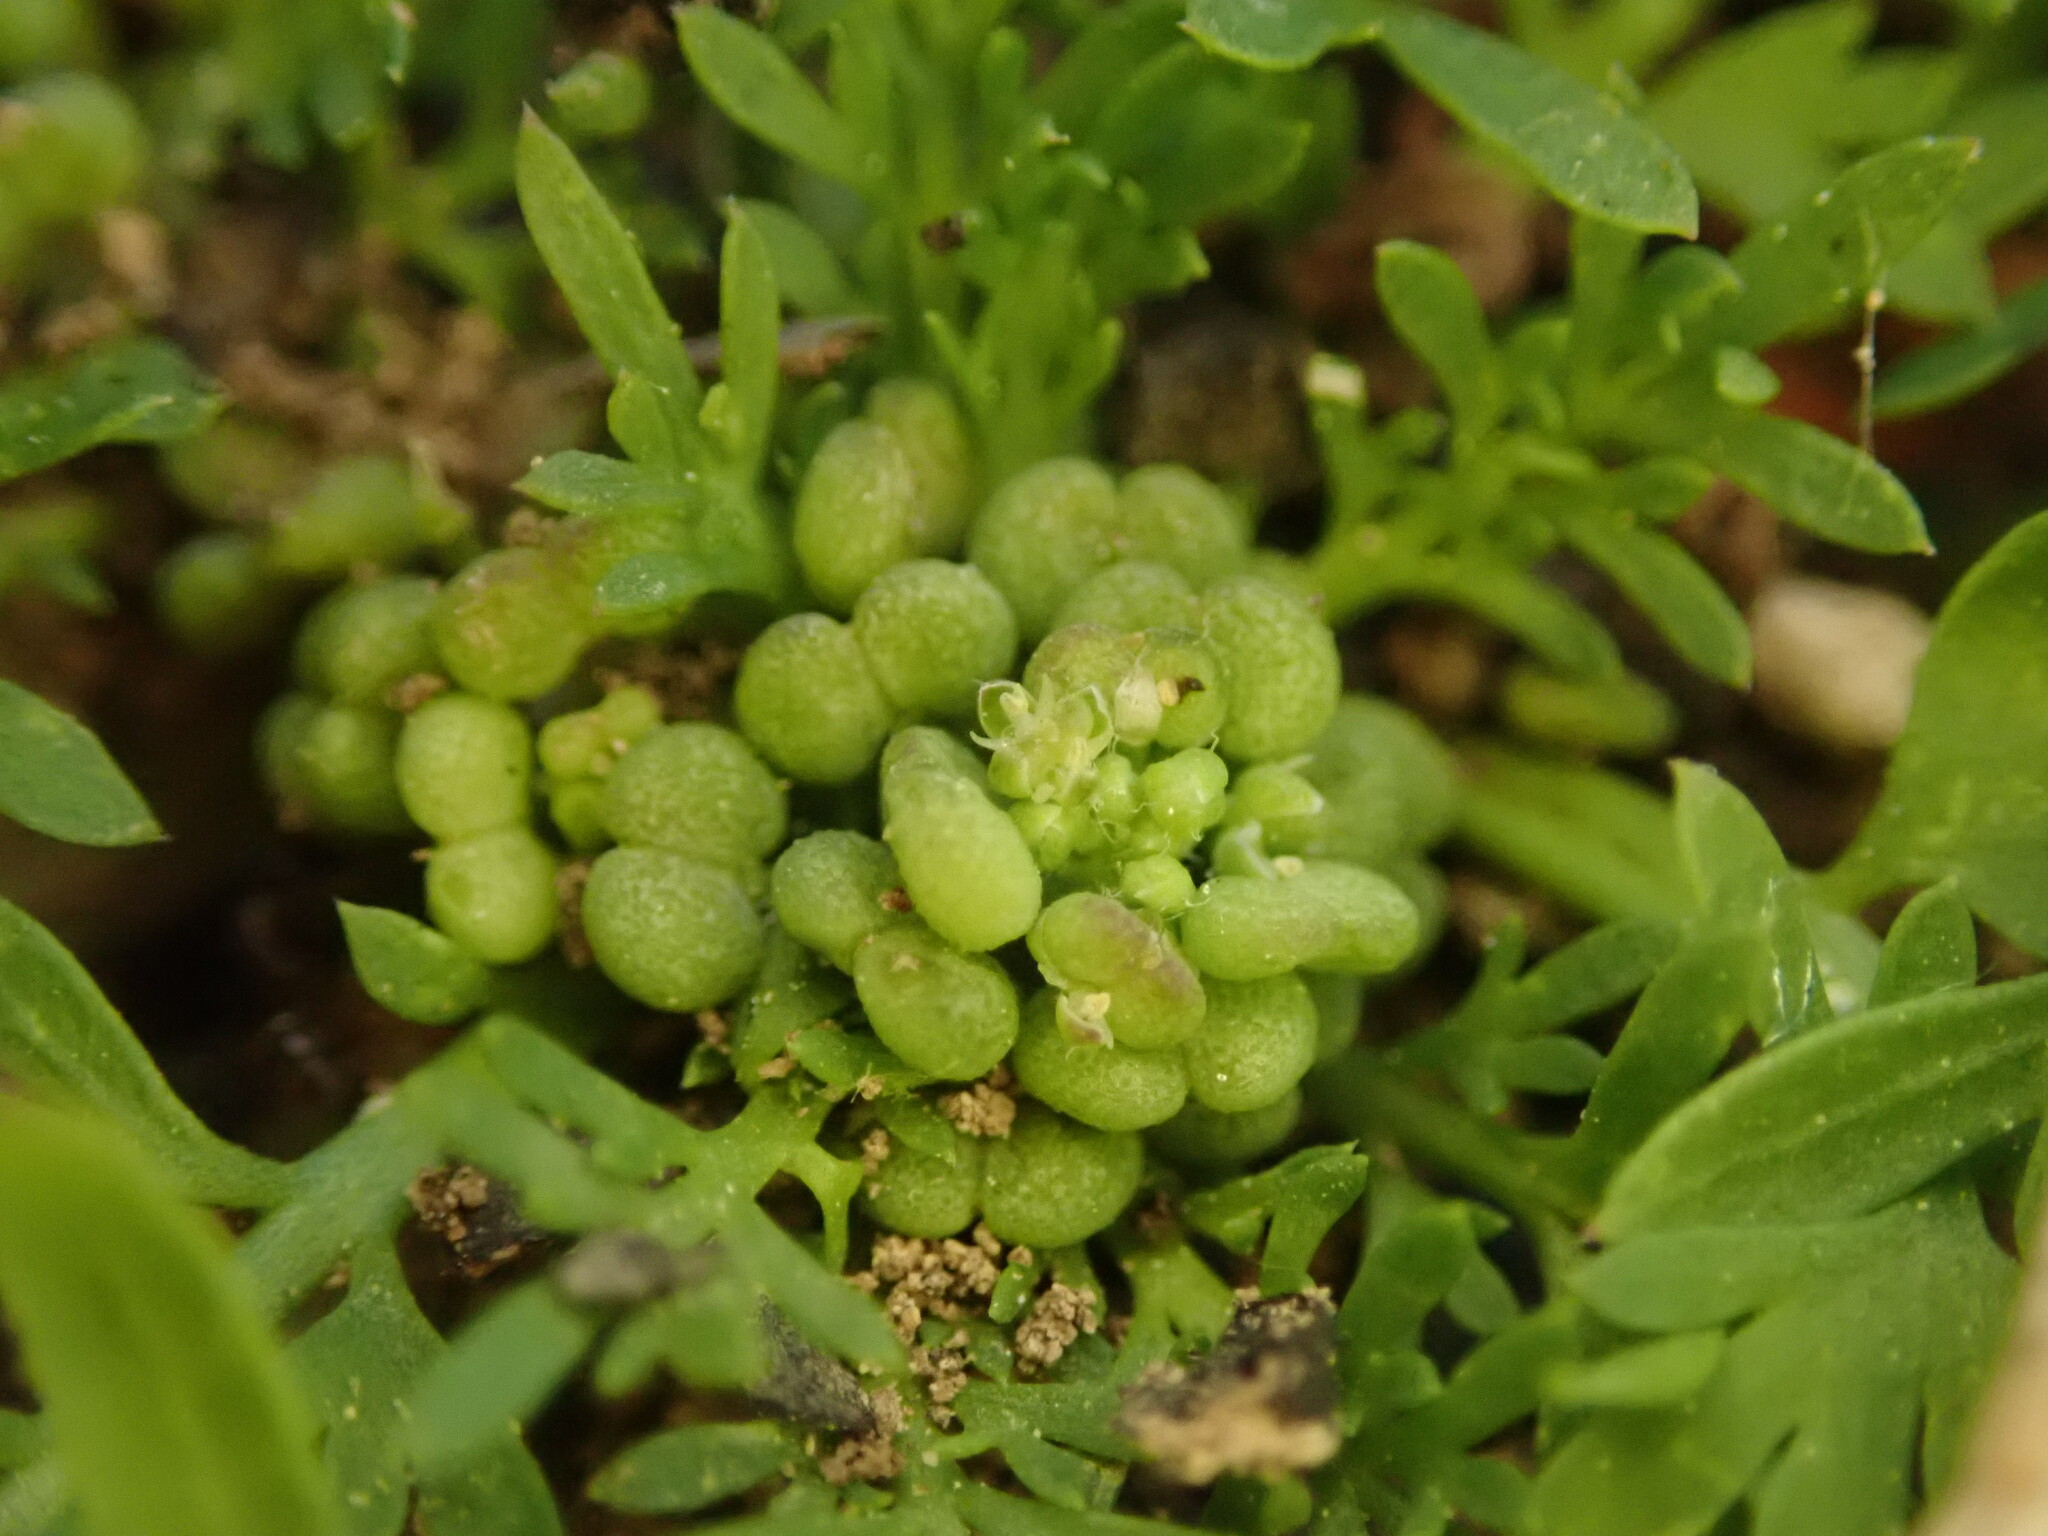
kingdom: Plantae
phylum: Tracheophyta
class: Magnoliopsida
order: Brassicales
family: Brassicaceae
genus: Lepidium
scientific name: Lepidium didymum
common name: Lesser swinecress
